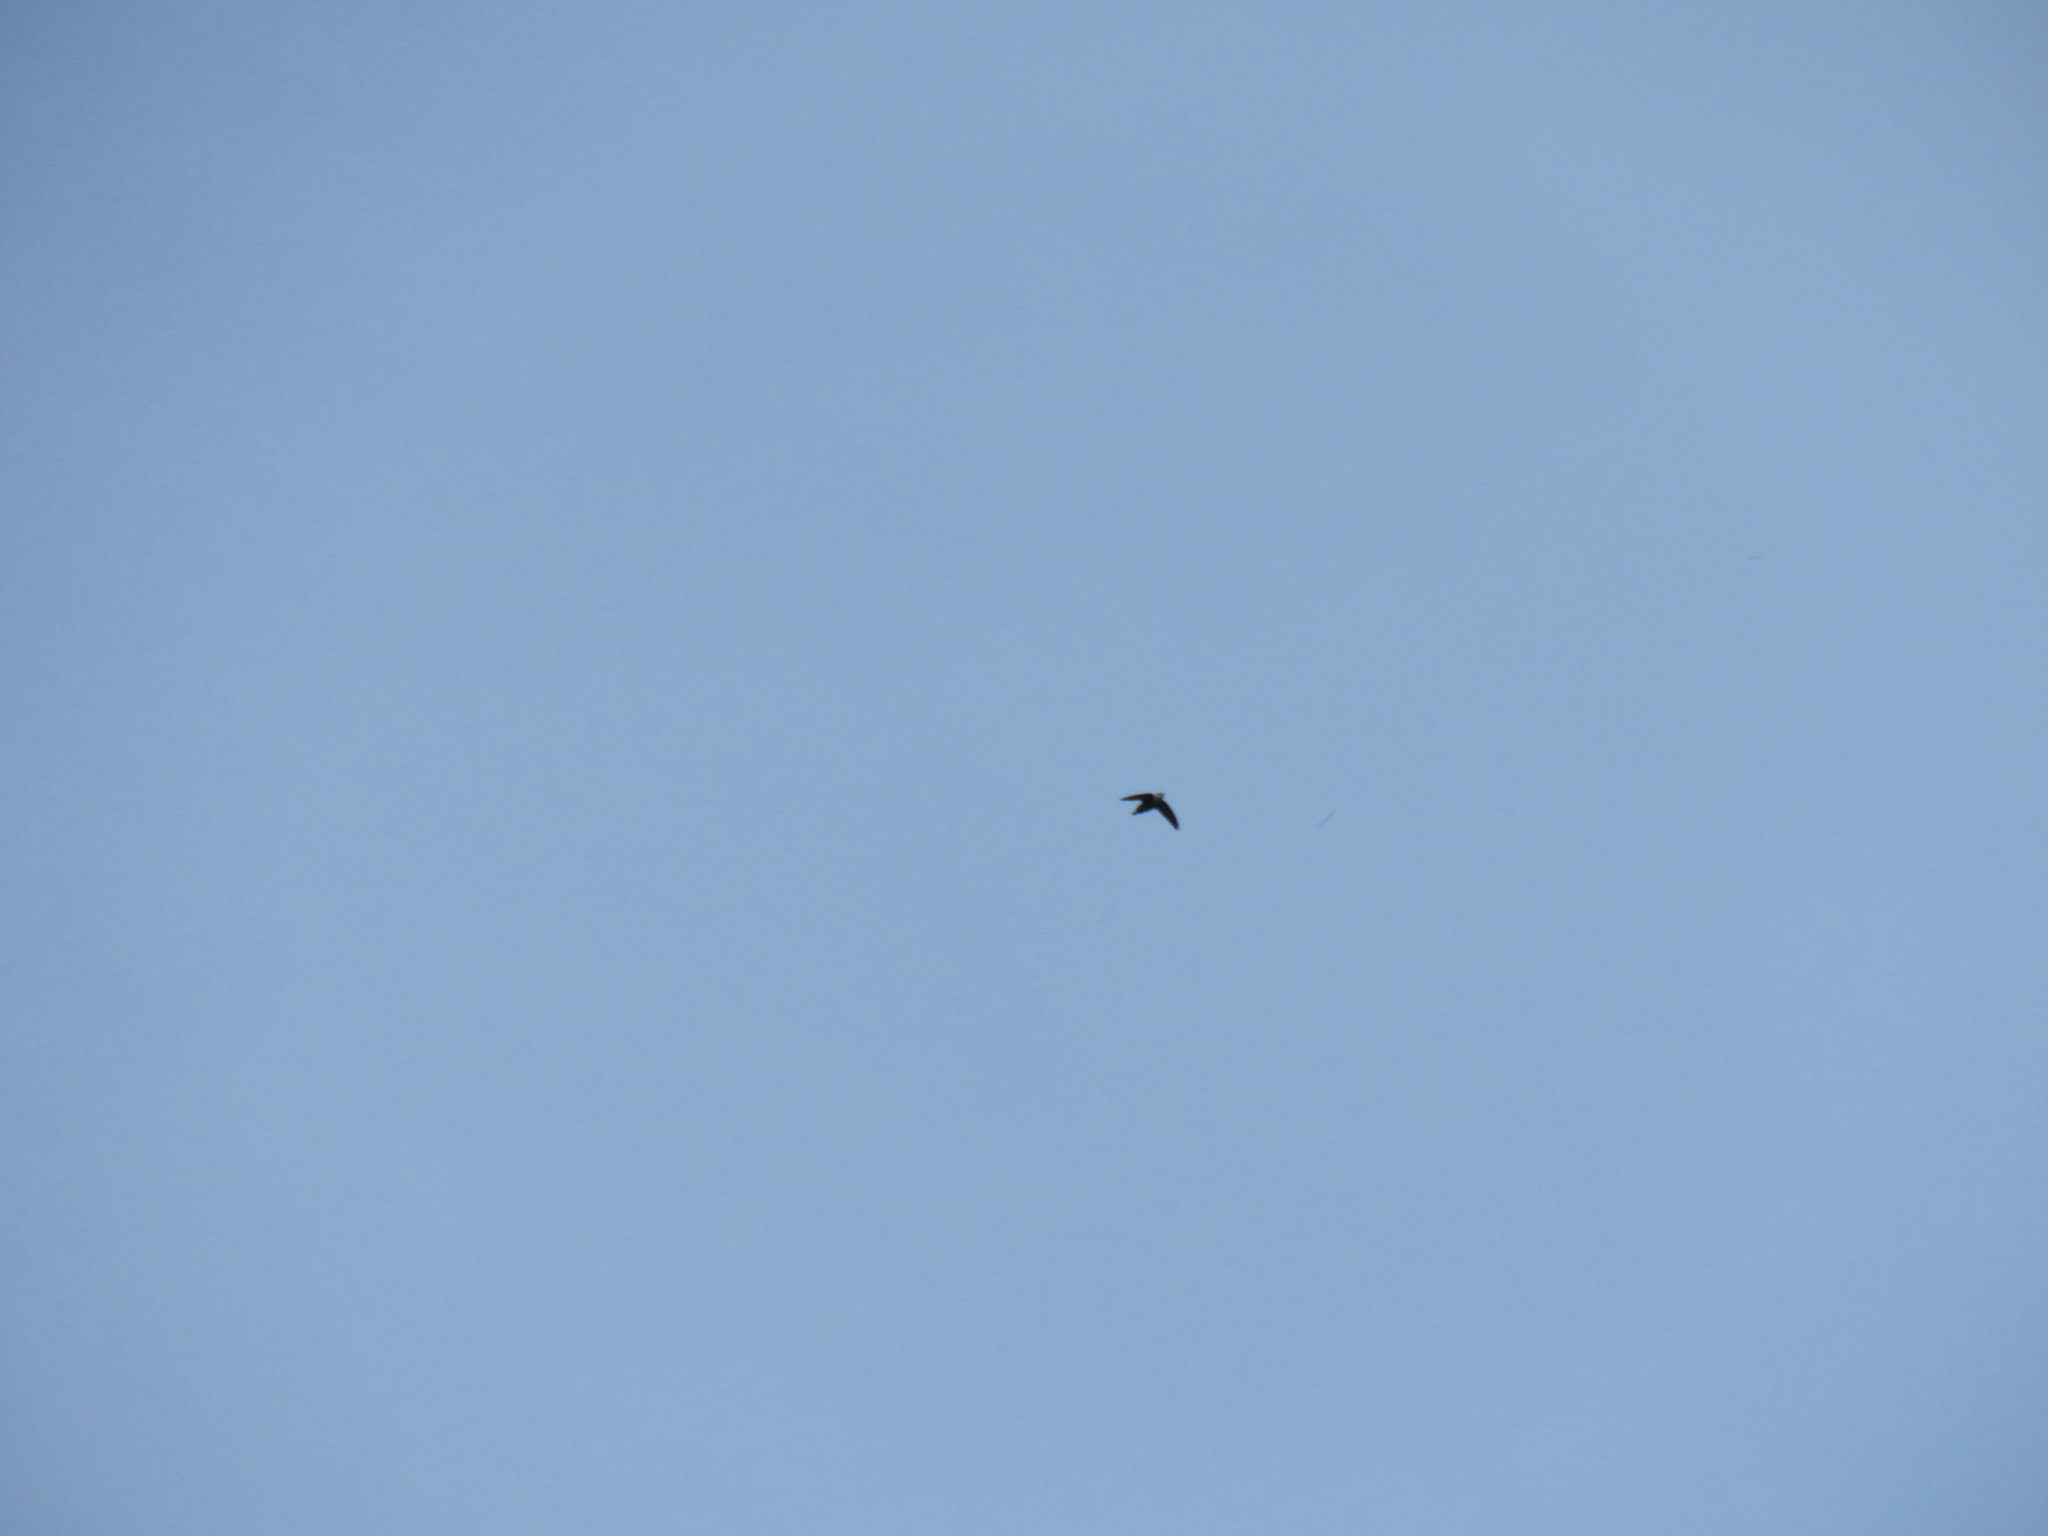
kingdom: Animalia
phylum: Chordata
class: Aves
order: Apodiformes
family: Apodidae
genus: Chaetura
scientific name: Chaetura vauxi
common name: Vaux's swift
